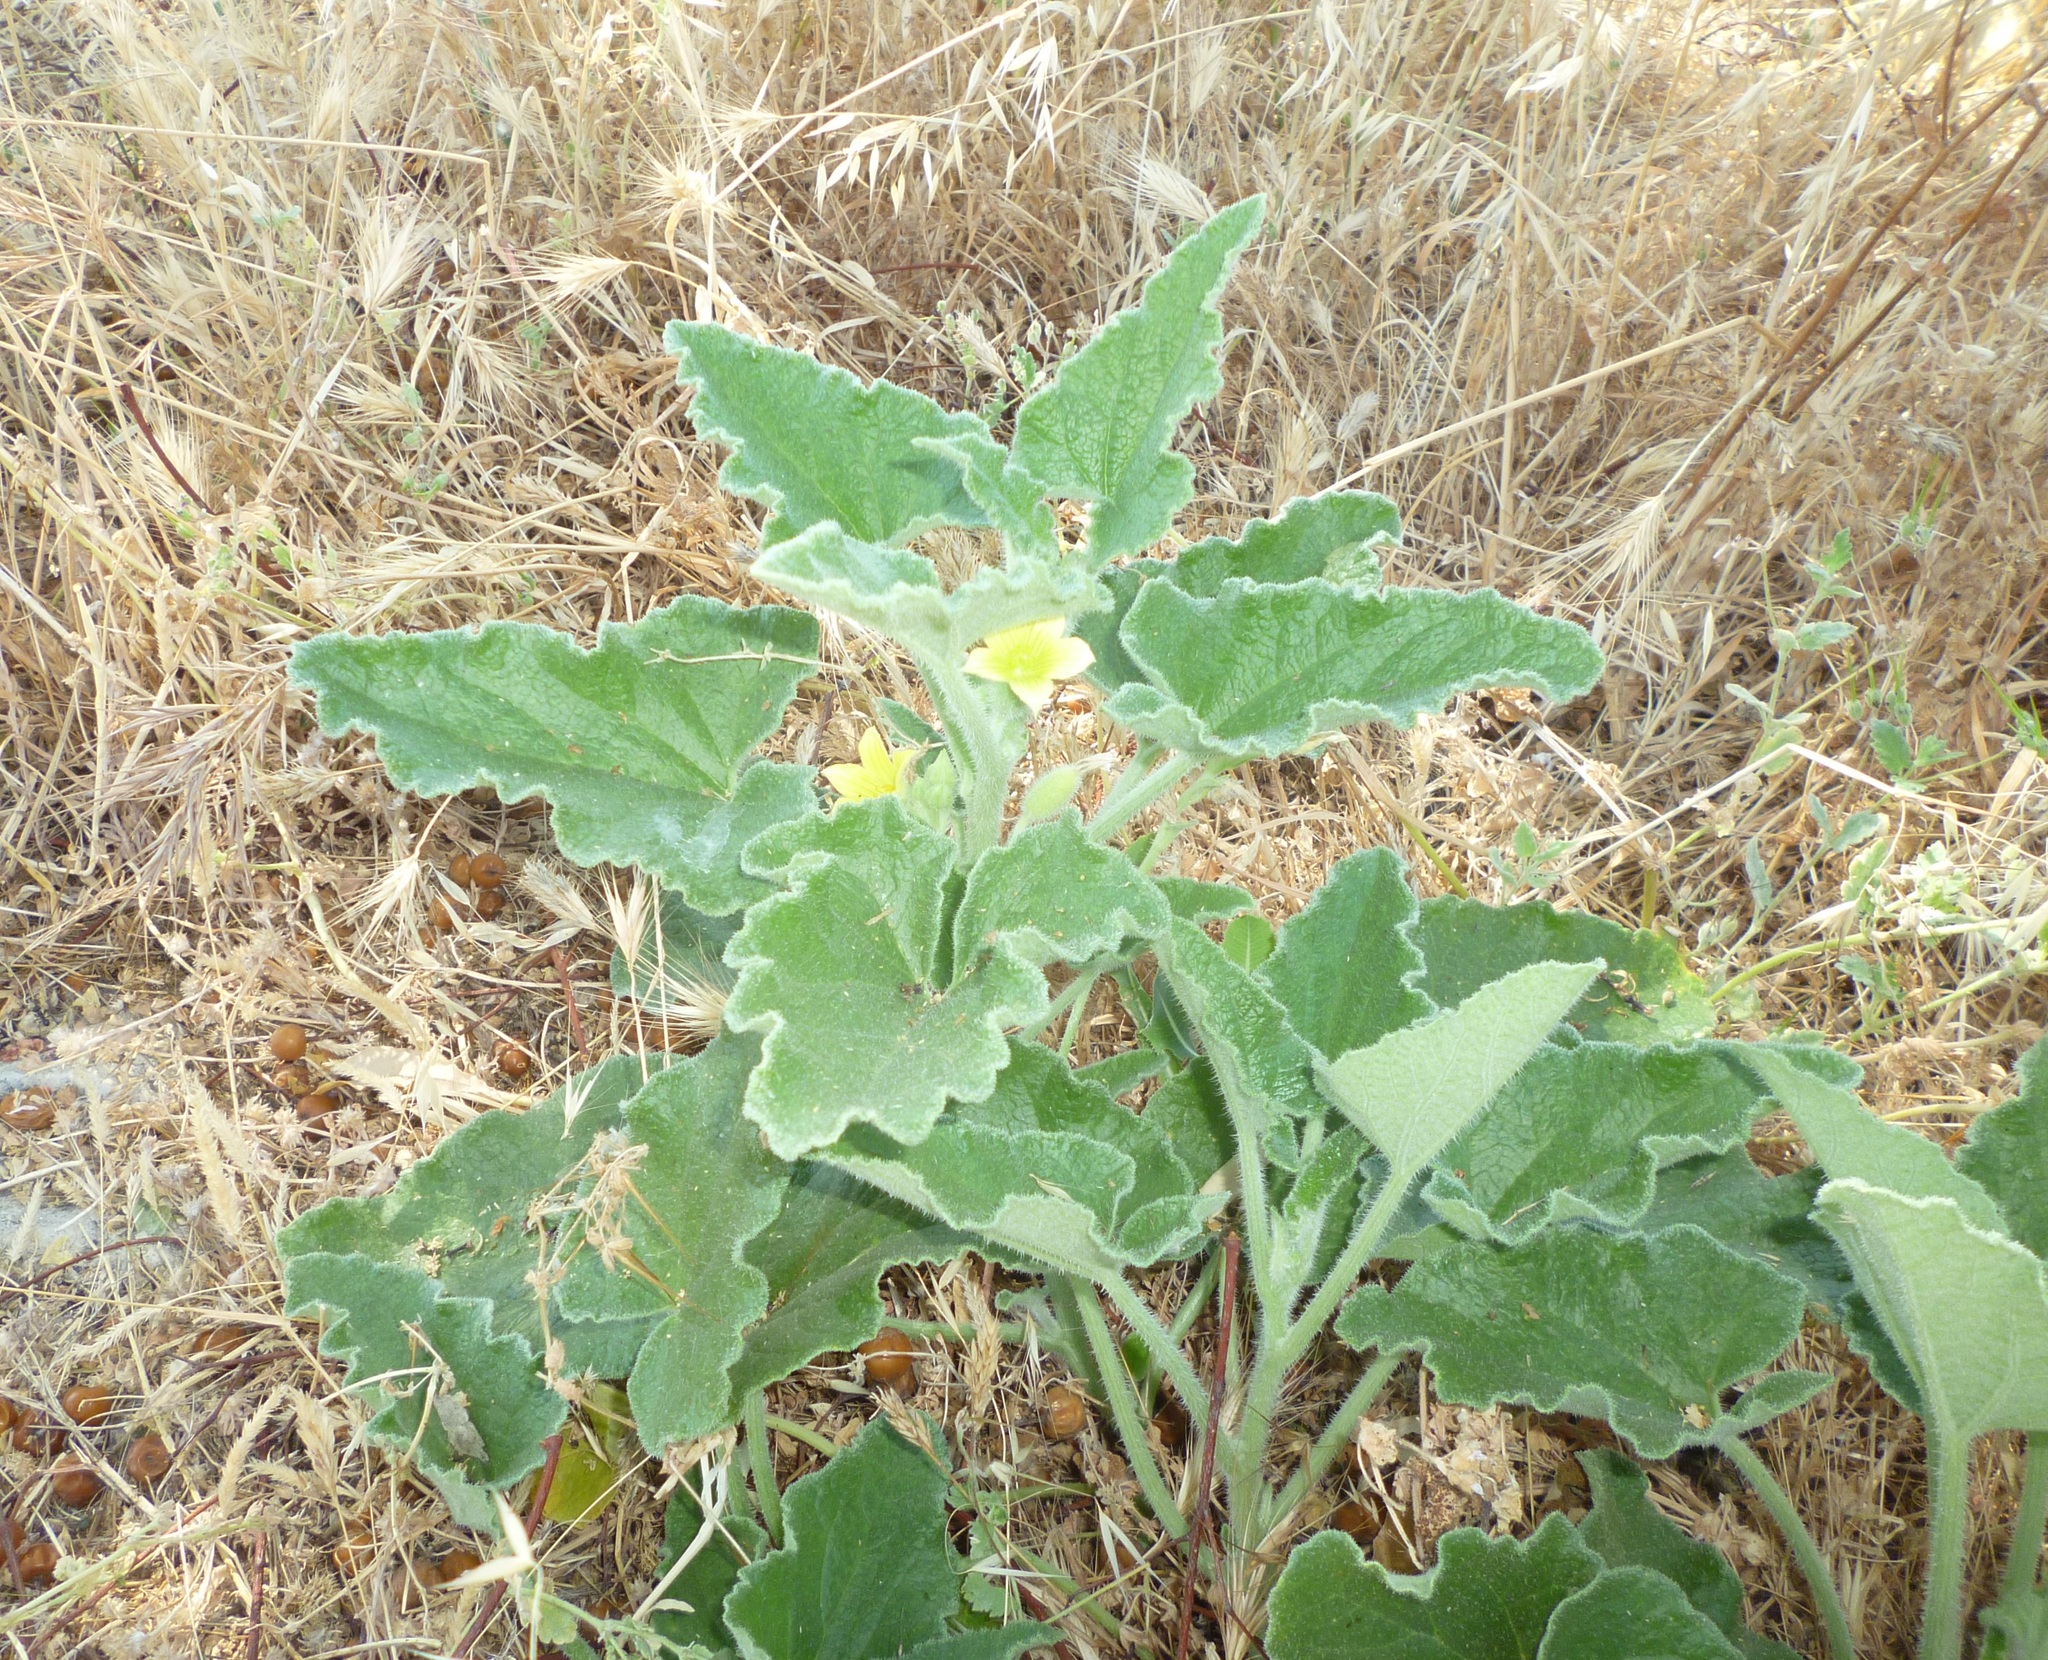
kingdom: Plantae
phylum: Tracheophyta
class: Magnoliopsida
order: Cucurbitales
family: Cucurbitaceae
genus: Ecballium
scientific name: Ecballium elaterium
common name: Squirting cucumber
